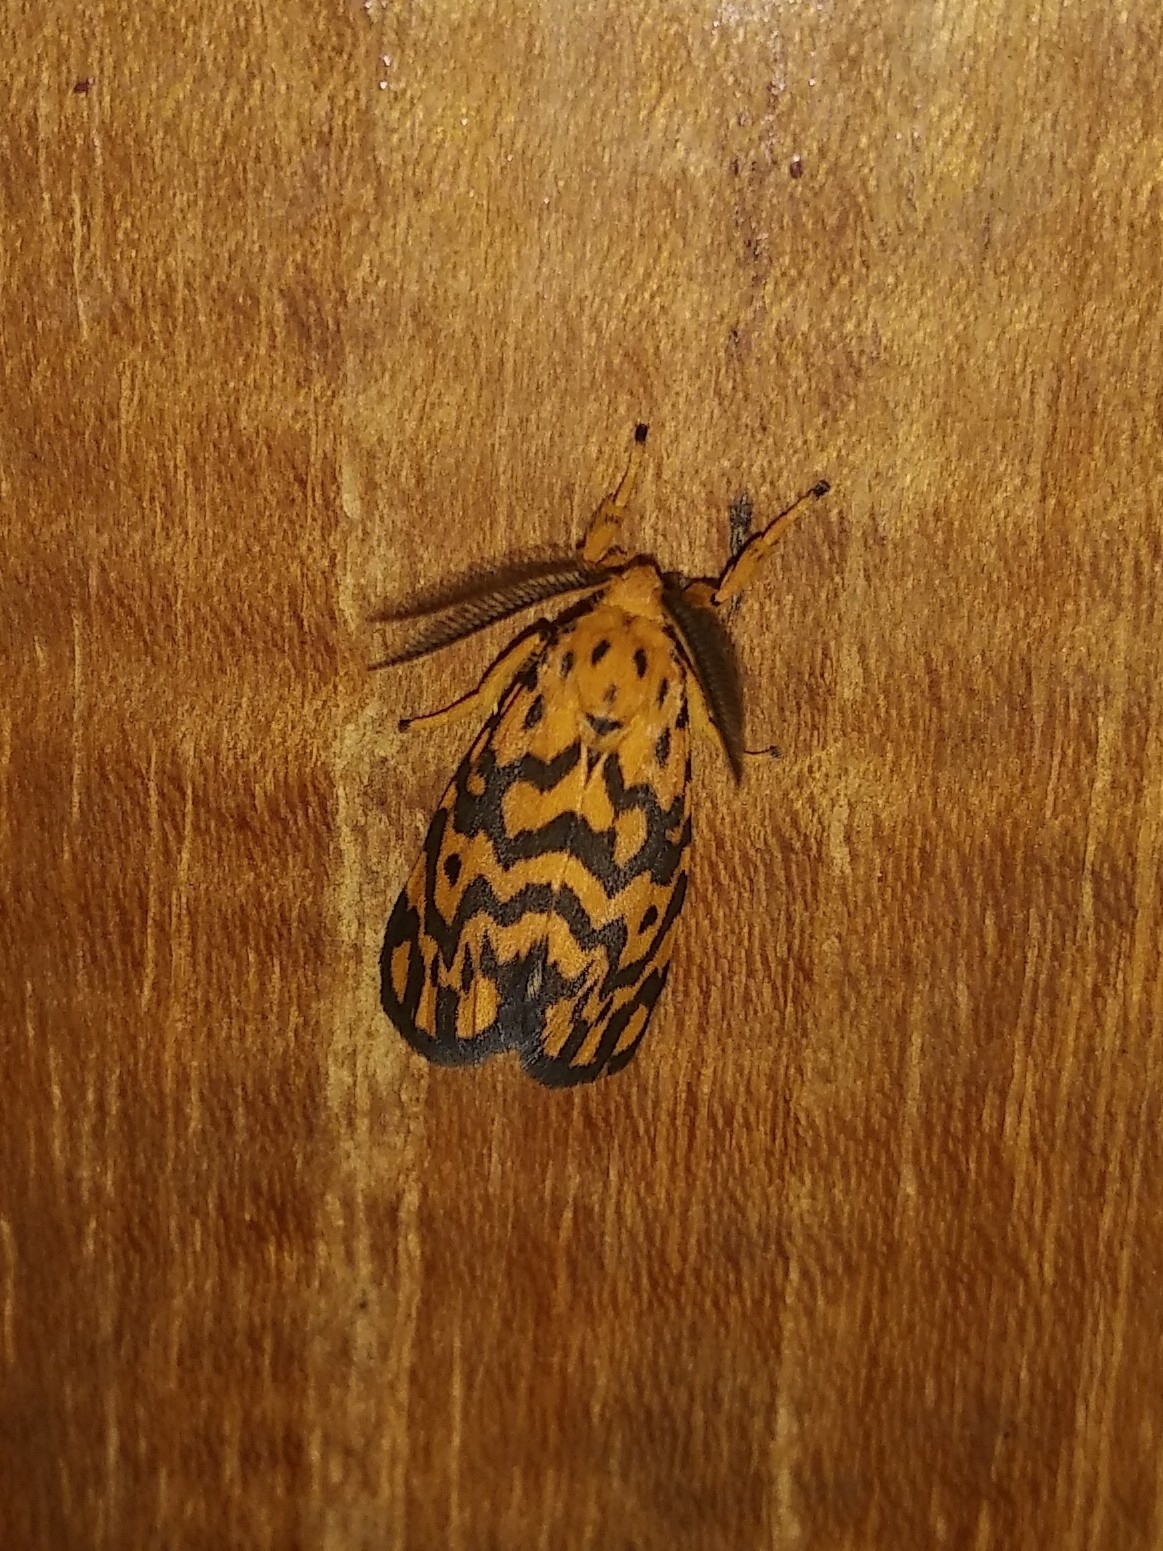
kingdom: Animalia
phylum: Arthropoda
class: Insecta
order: Lepidoptera
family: Erebidae
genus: Nepita
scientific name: Nepita conferta
